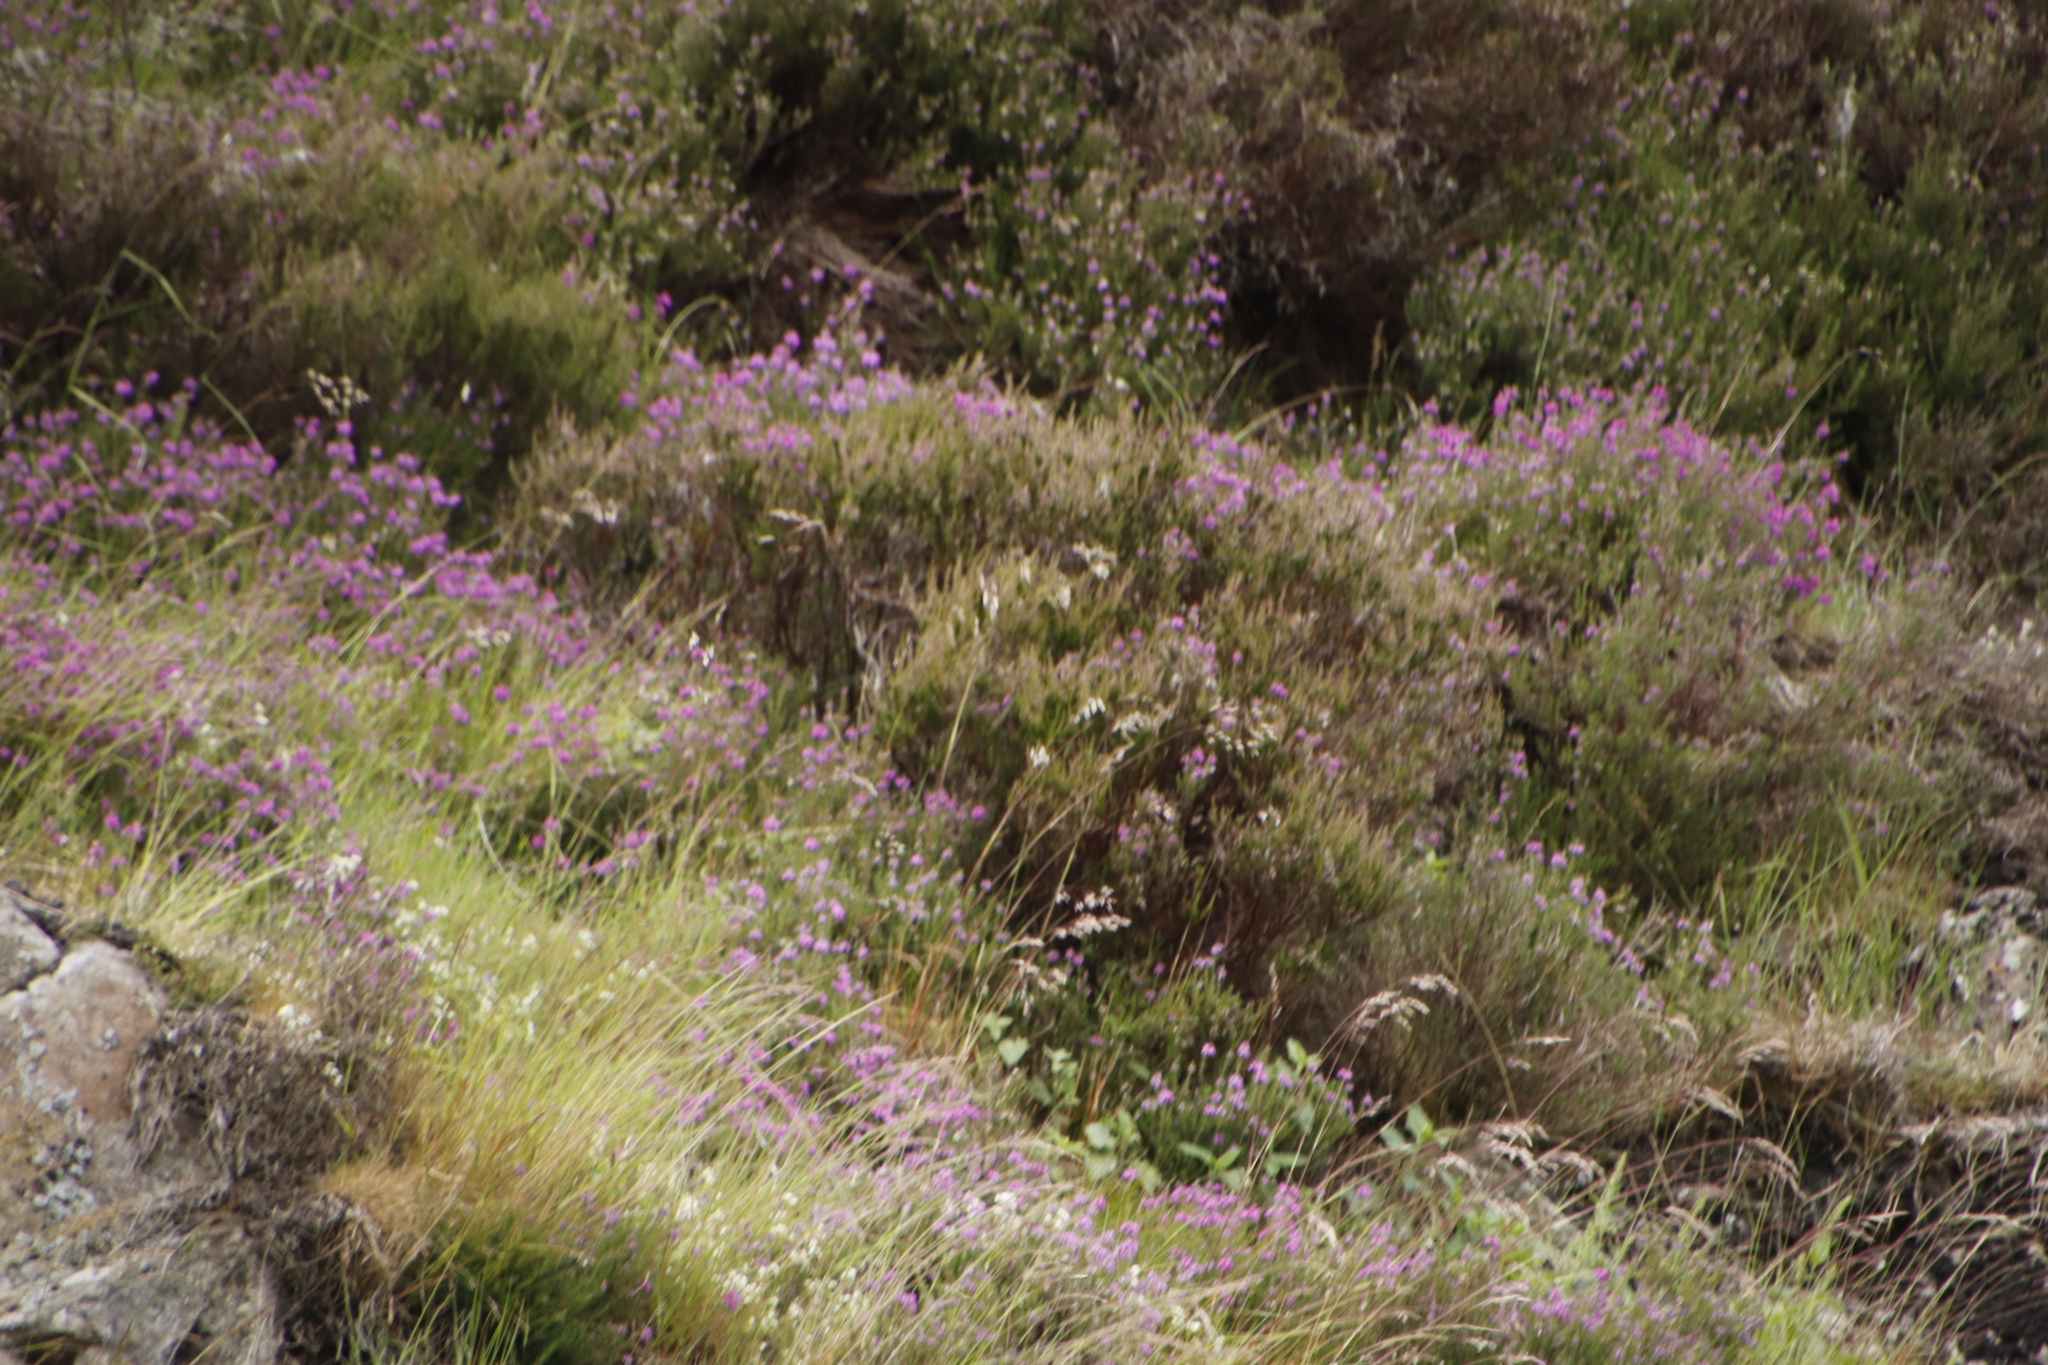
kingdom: Plantae
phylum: Tracheophyta
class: Magnoliopsida
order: Ericales
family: Ericaceae
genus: Erica
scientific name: Erica cinerea
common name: Bell heather
